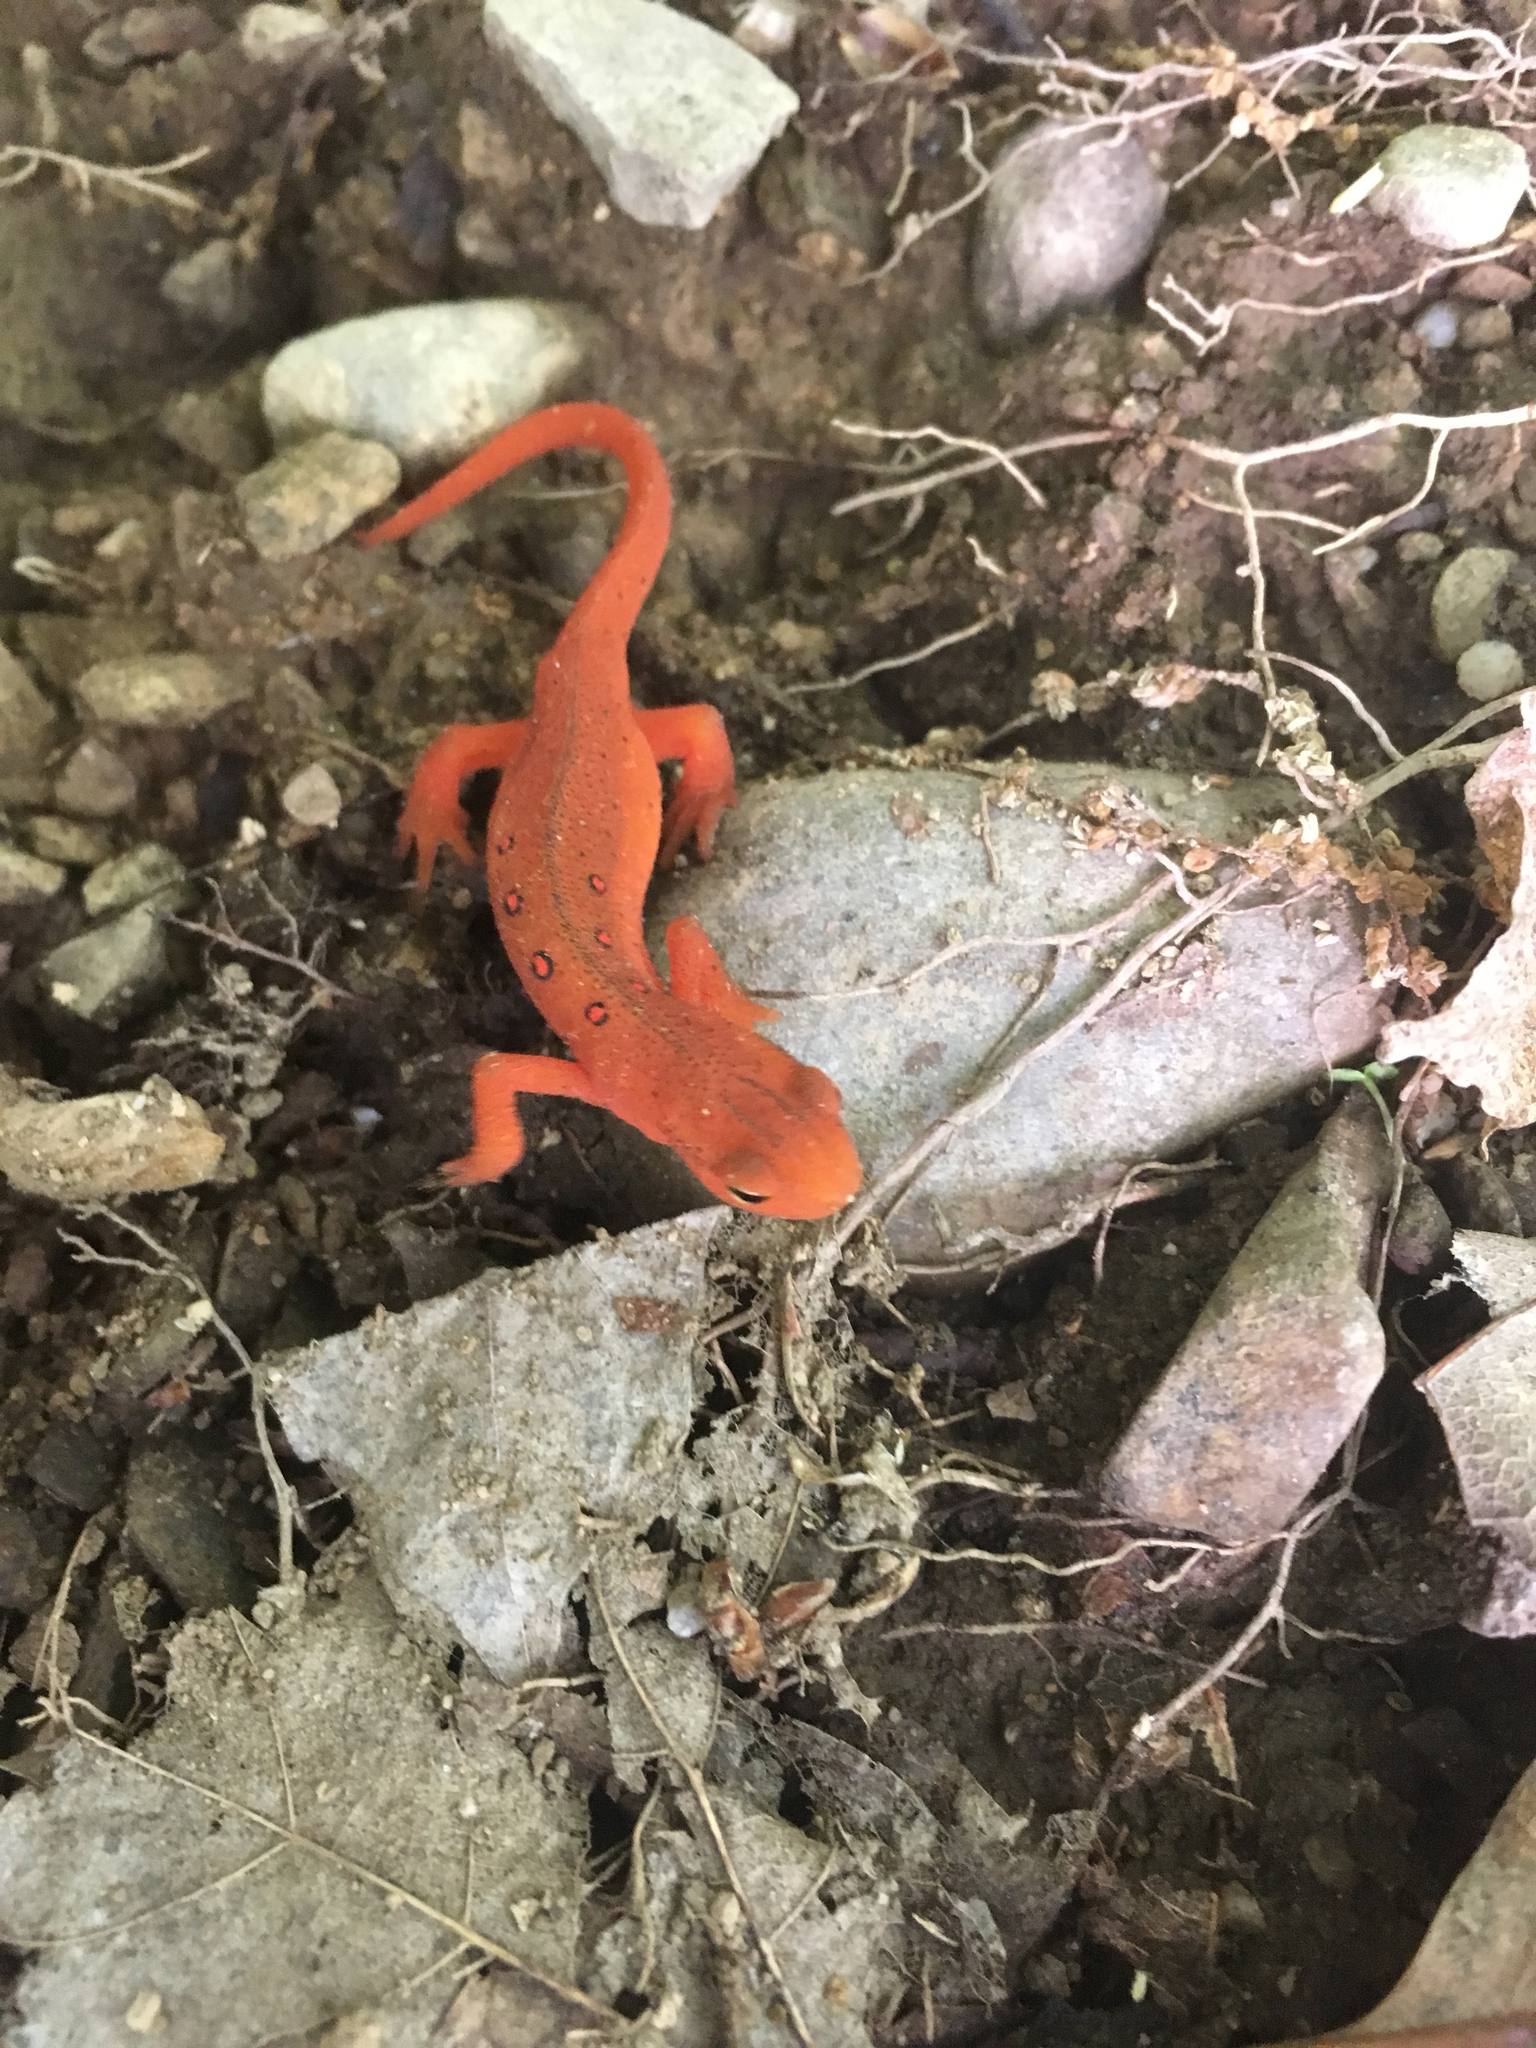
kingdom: Animalia
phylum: Chordata
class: Amphibia
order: Caudata
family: Salamandridae
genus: Notophthalmus
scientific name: Notophthalmus viridescens
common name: Eastern newt
